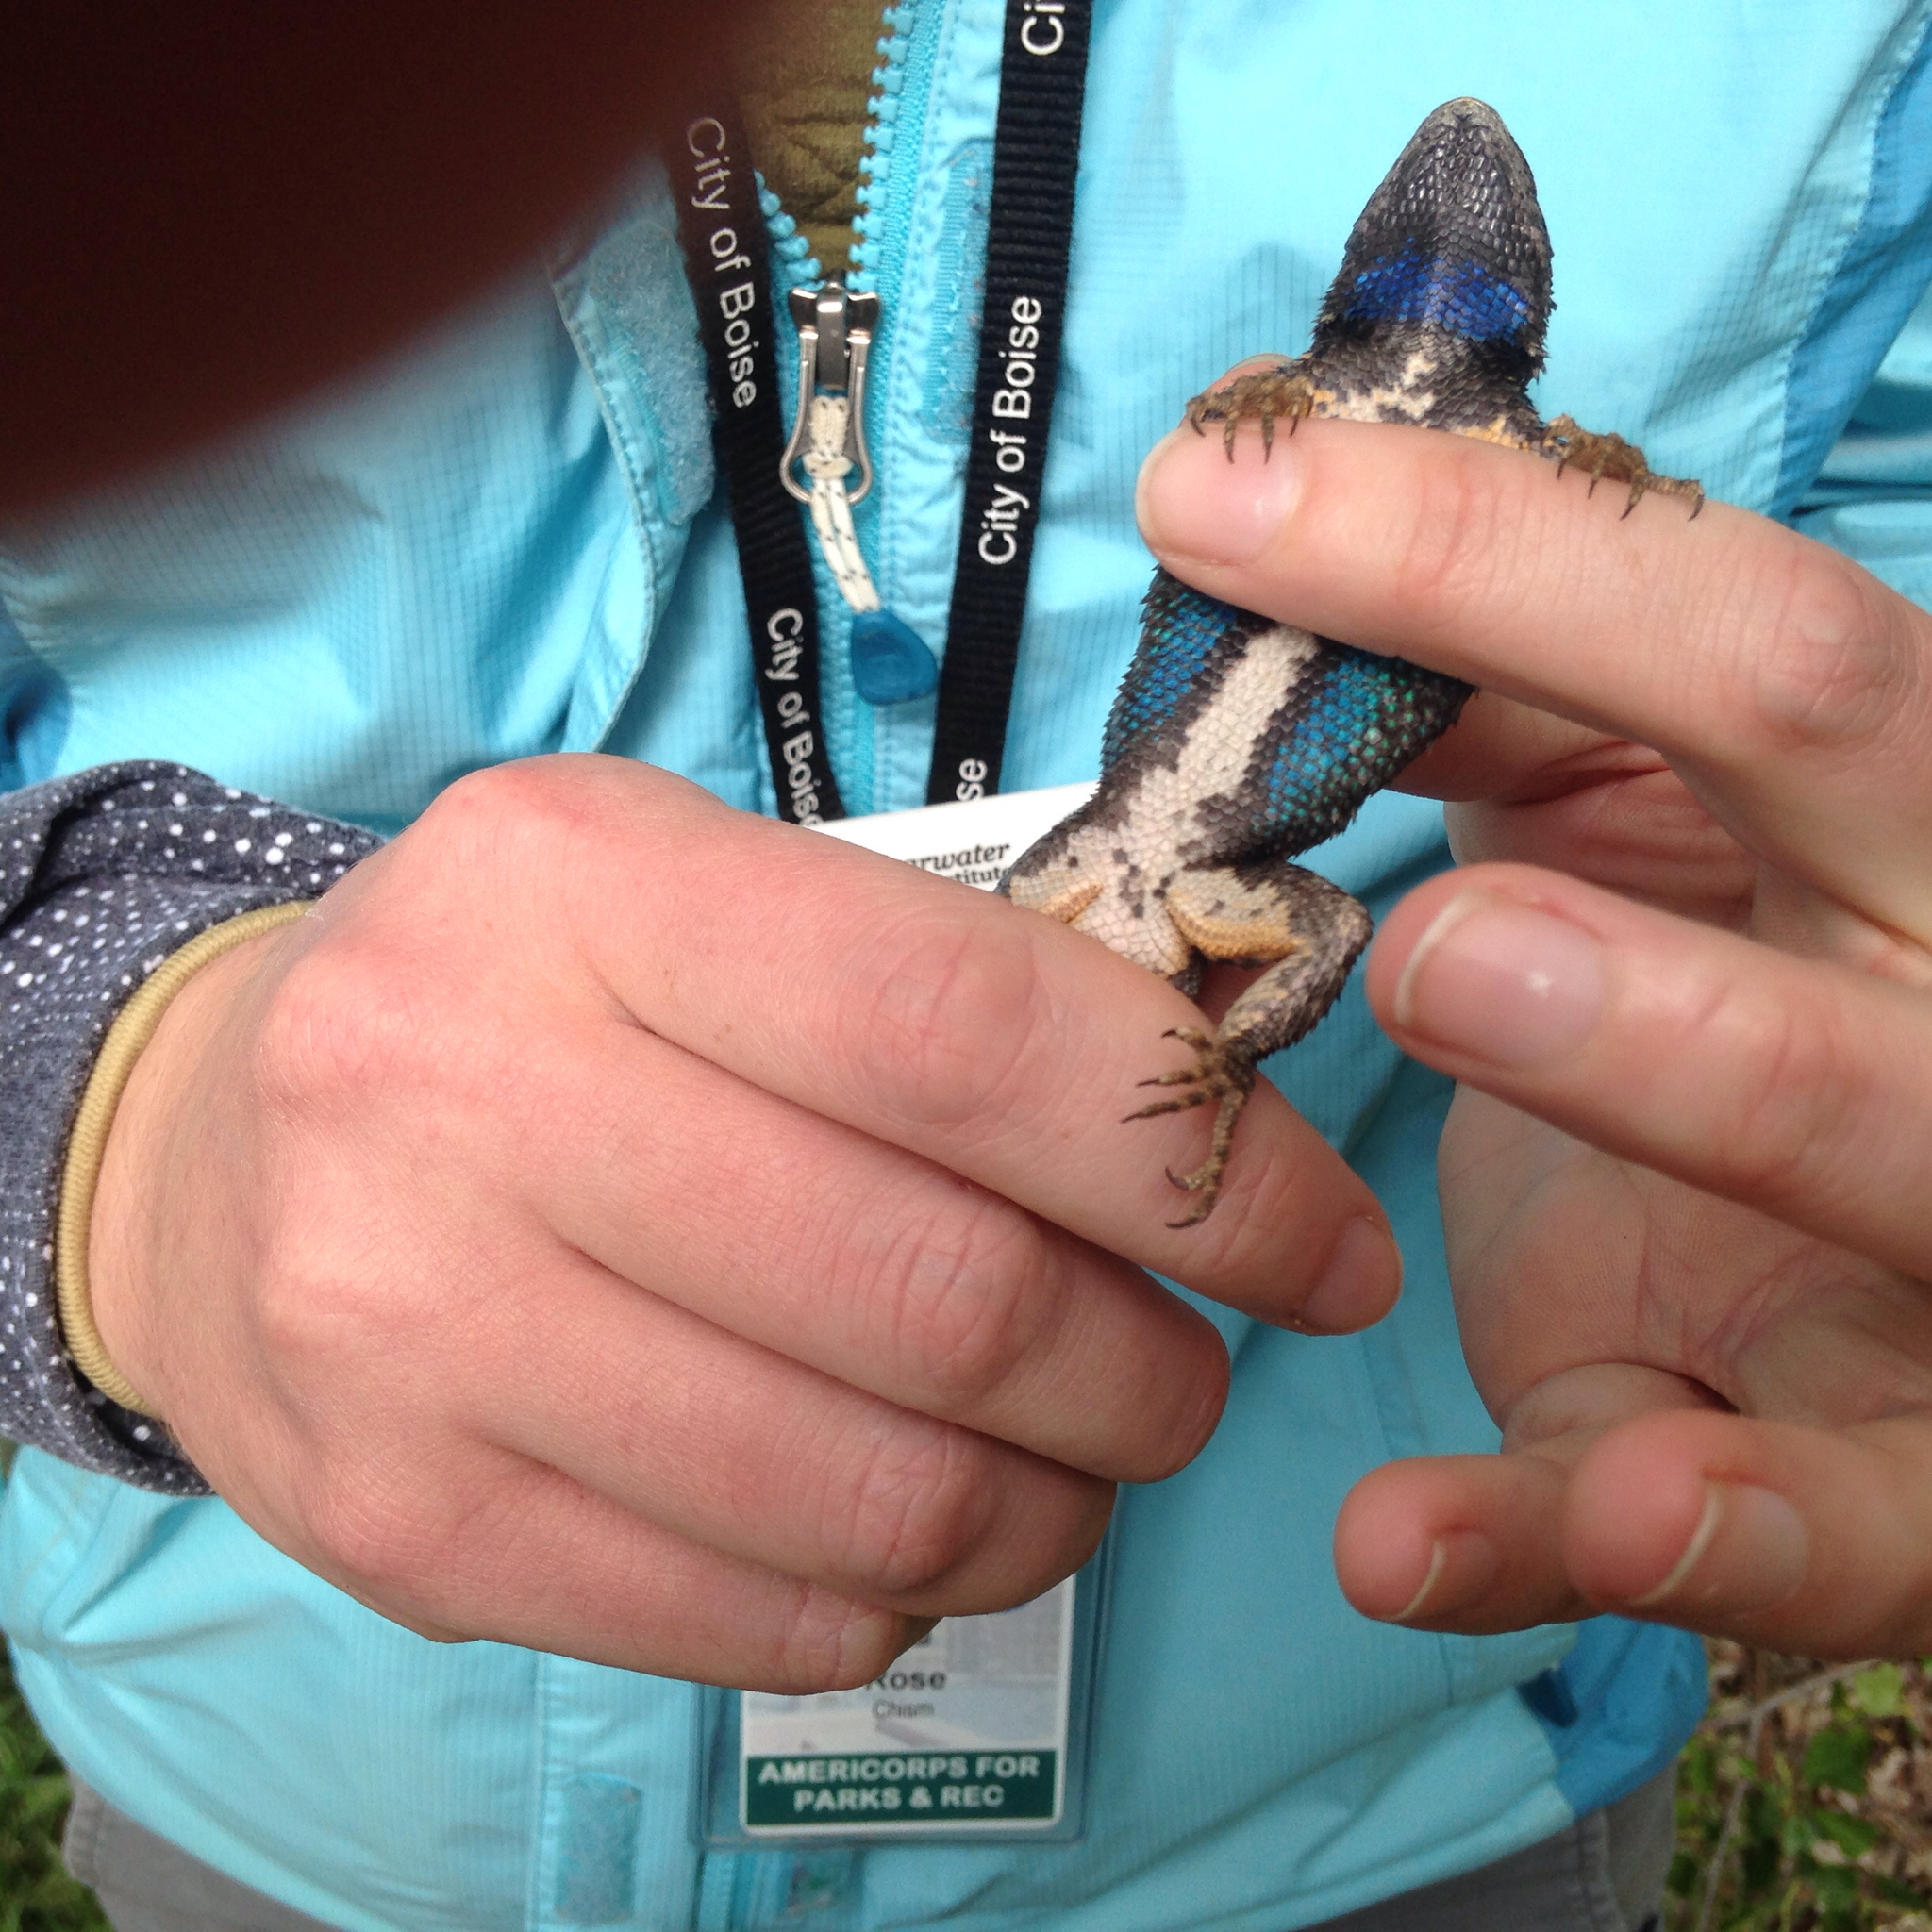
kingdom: Animalia
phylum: Chordata
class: Squamata
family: Phrynosomatidae
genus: Sceloporus
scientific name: Sceloporus occidentalis
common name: Western fence lizard
